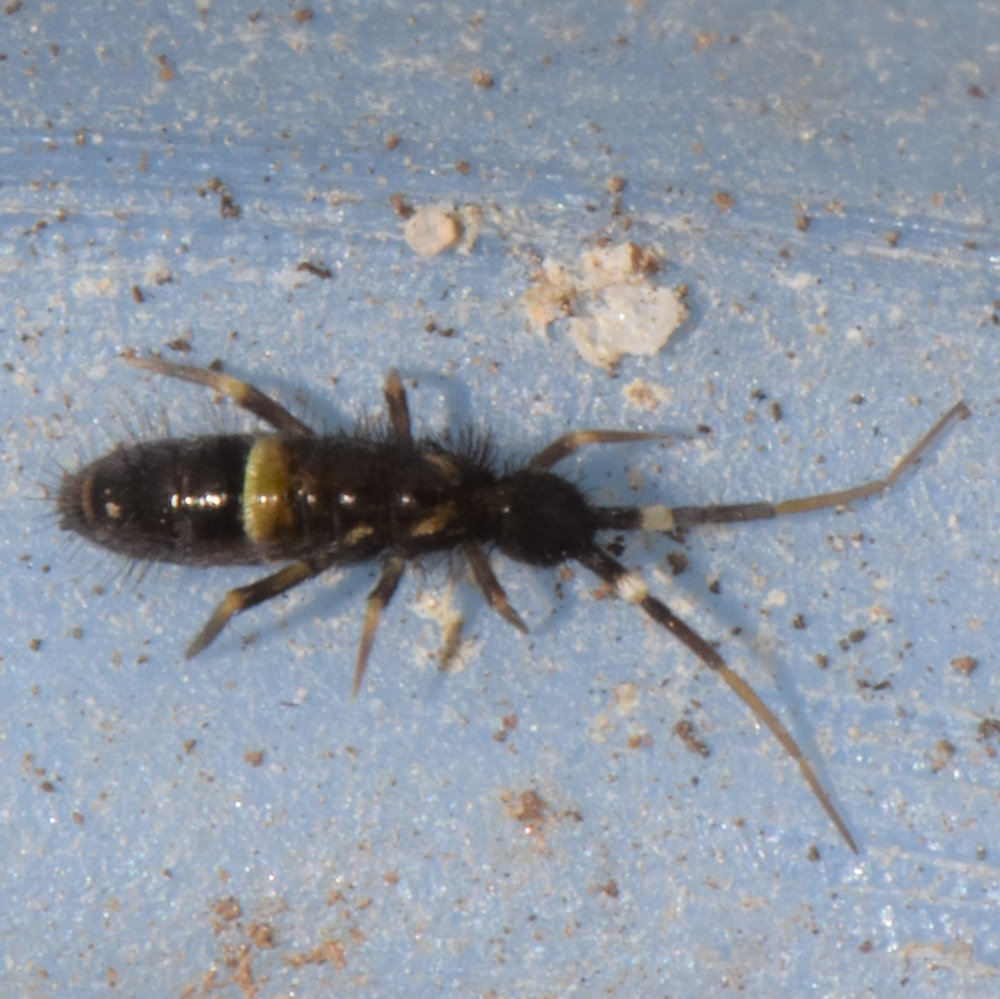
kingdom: Animalia
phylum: Arthropoda
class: Collembola
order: Entomobryomorpha
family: Orchesellidae
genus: Orchesella
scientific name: Orchesella cincta
